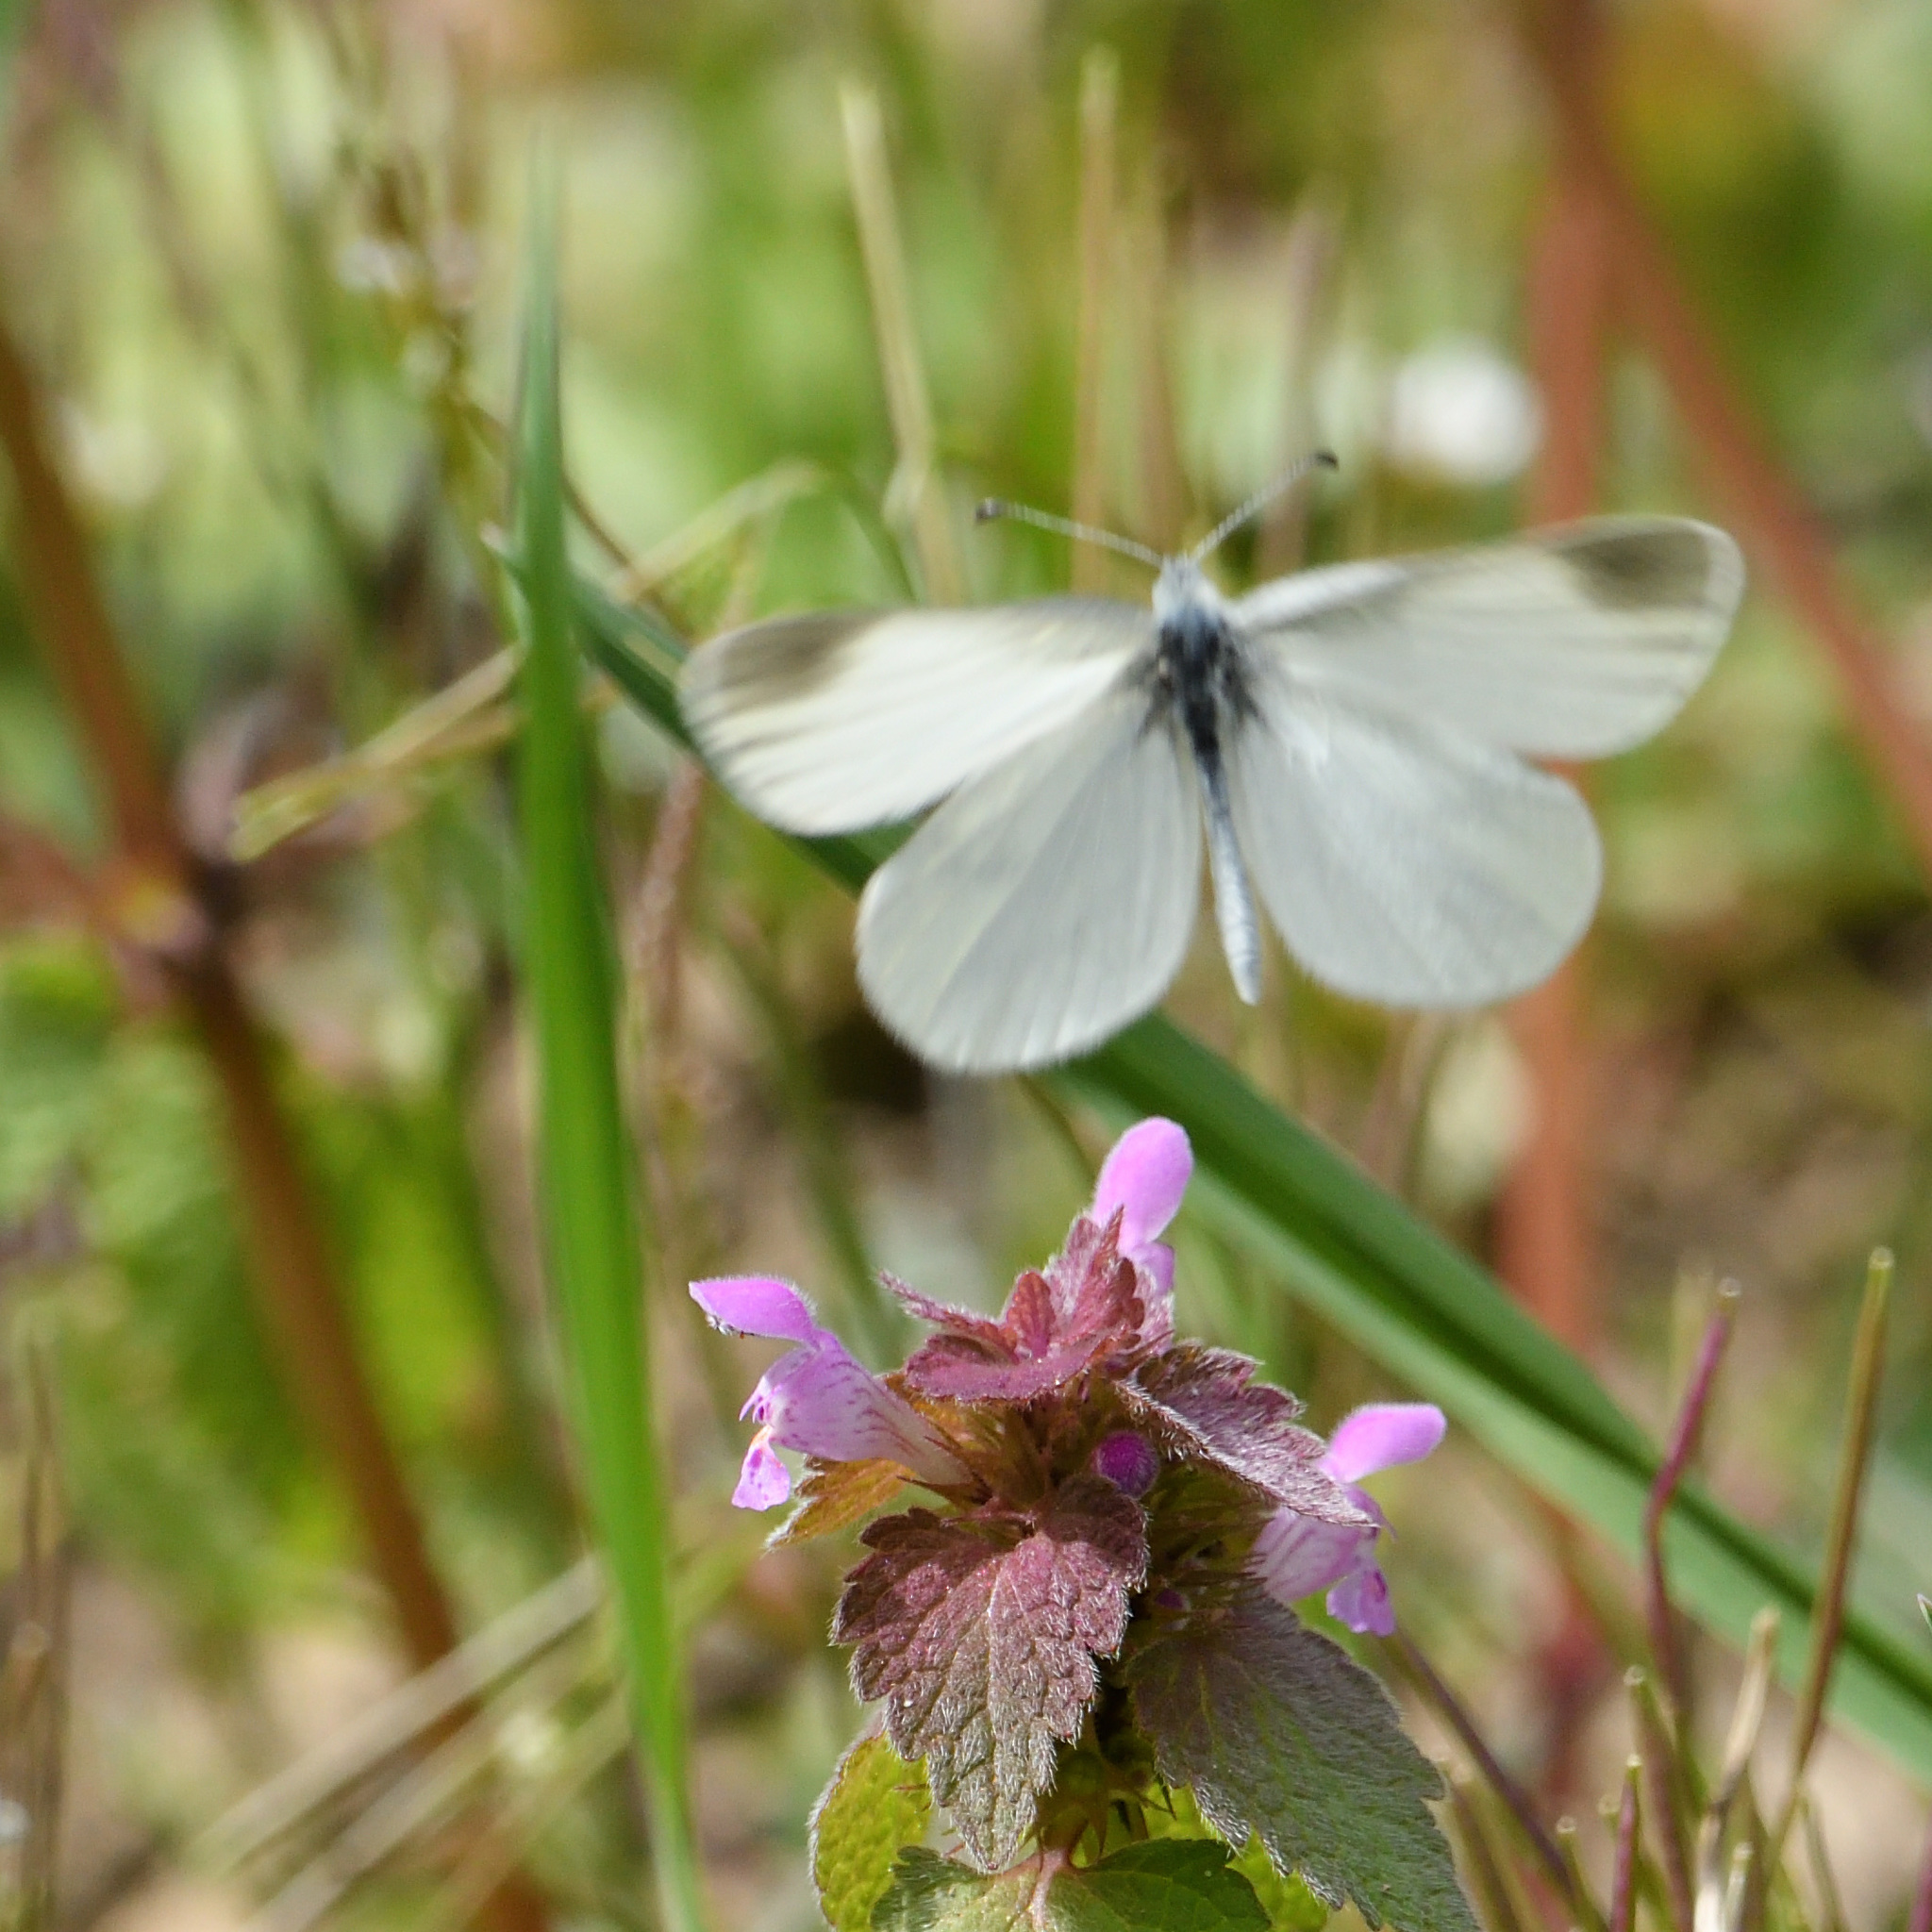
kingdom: Animalia
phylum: Arthropoda
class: Insecta
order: Lepidoptera
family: Pieridae
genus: Leptidea
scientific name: Leptidea
